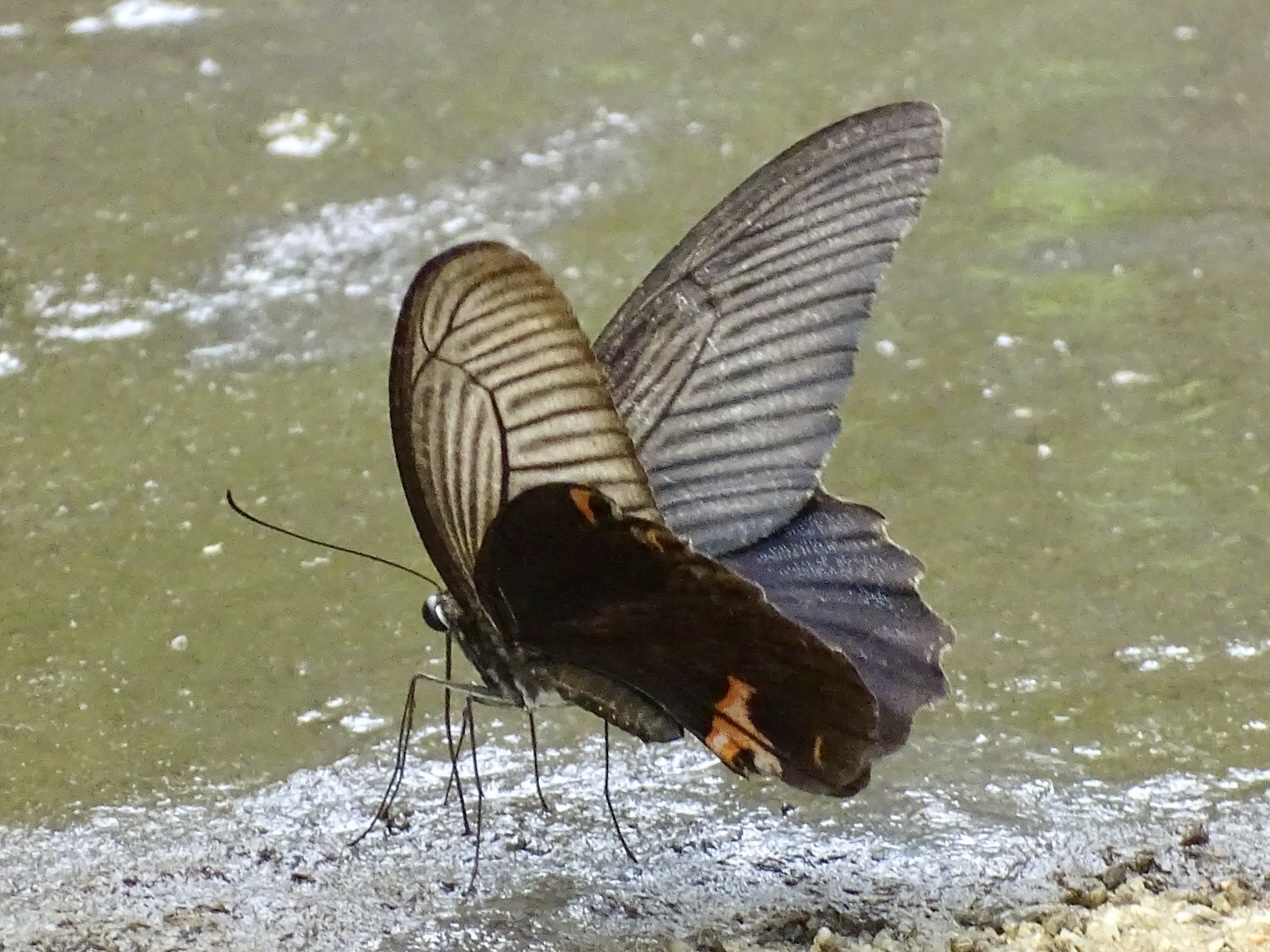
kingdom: Animalia
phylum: Arthropoda
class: Insecta
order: Lepidoptera
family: Papilionidae
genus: Papilio
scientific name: Papilio protenor
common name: Spangle
